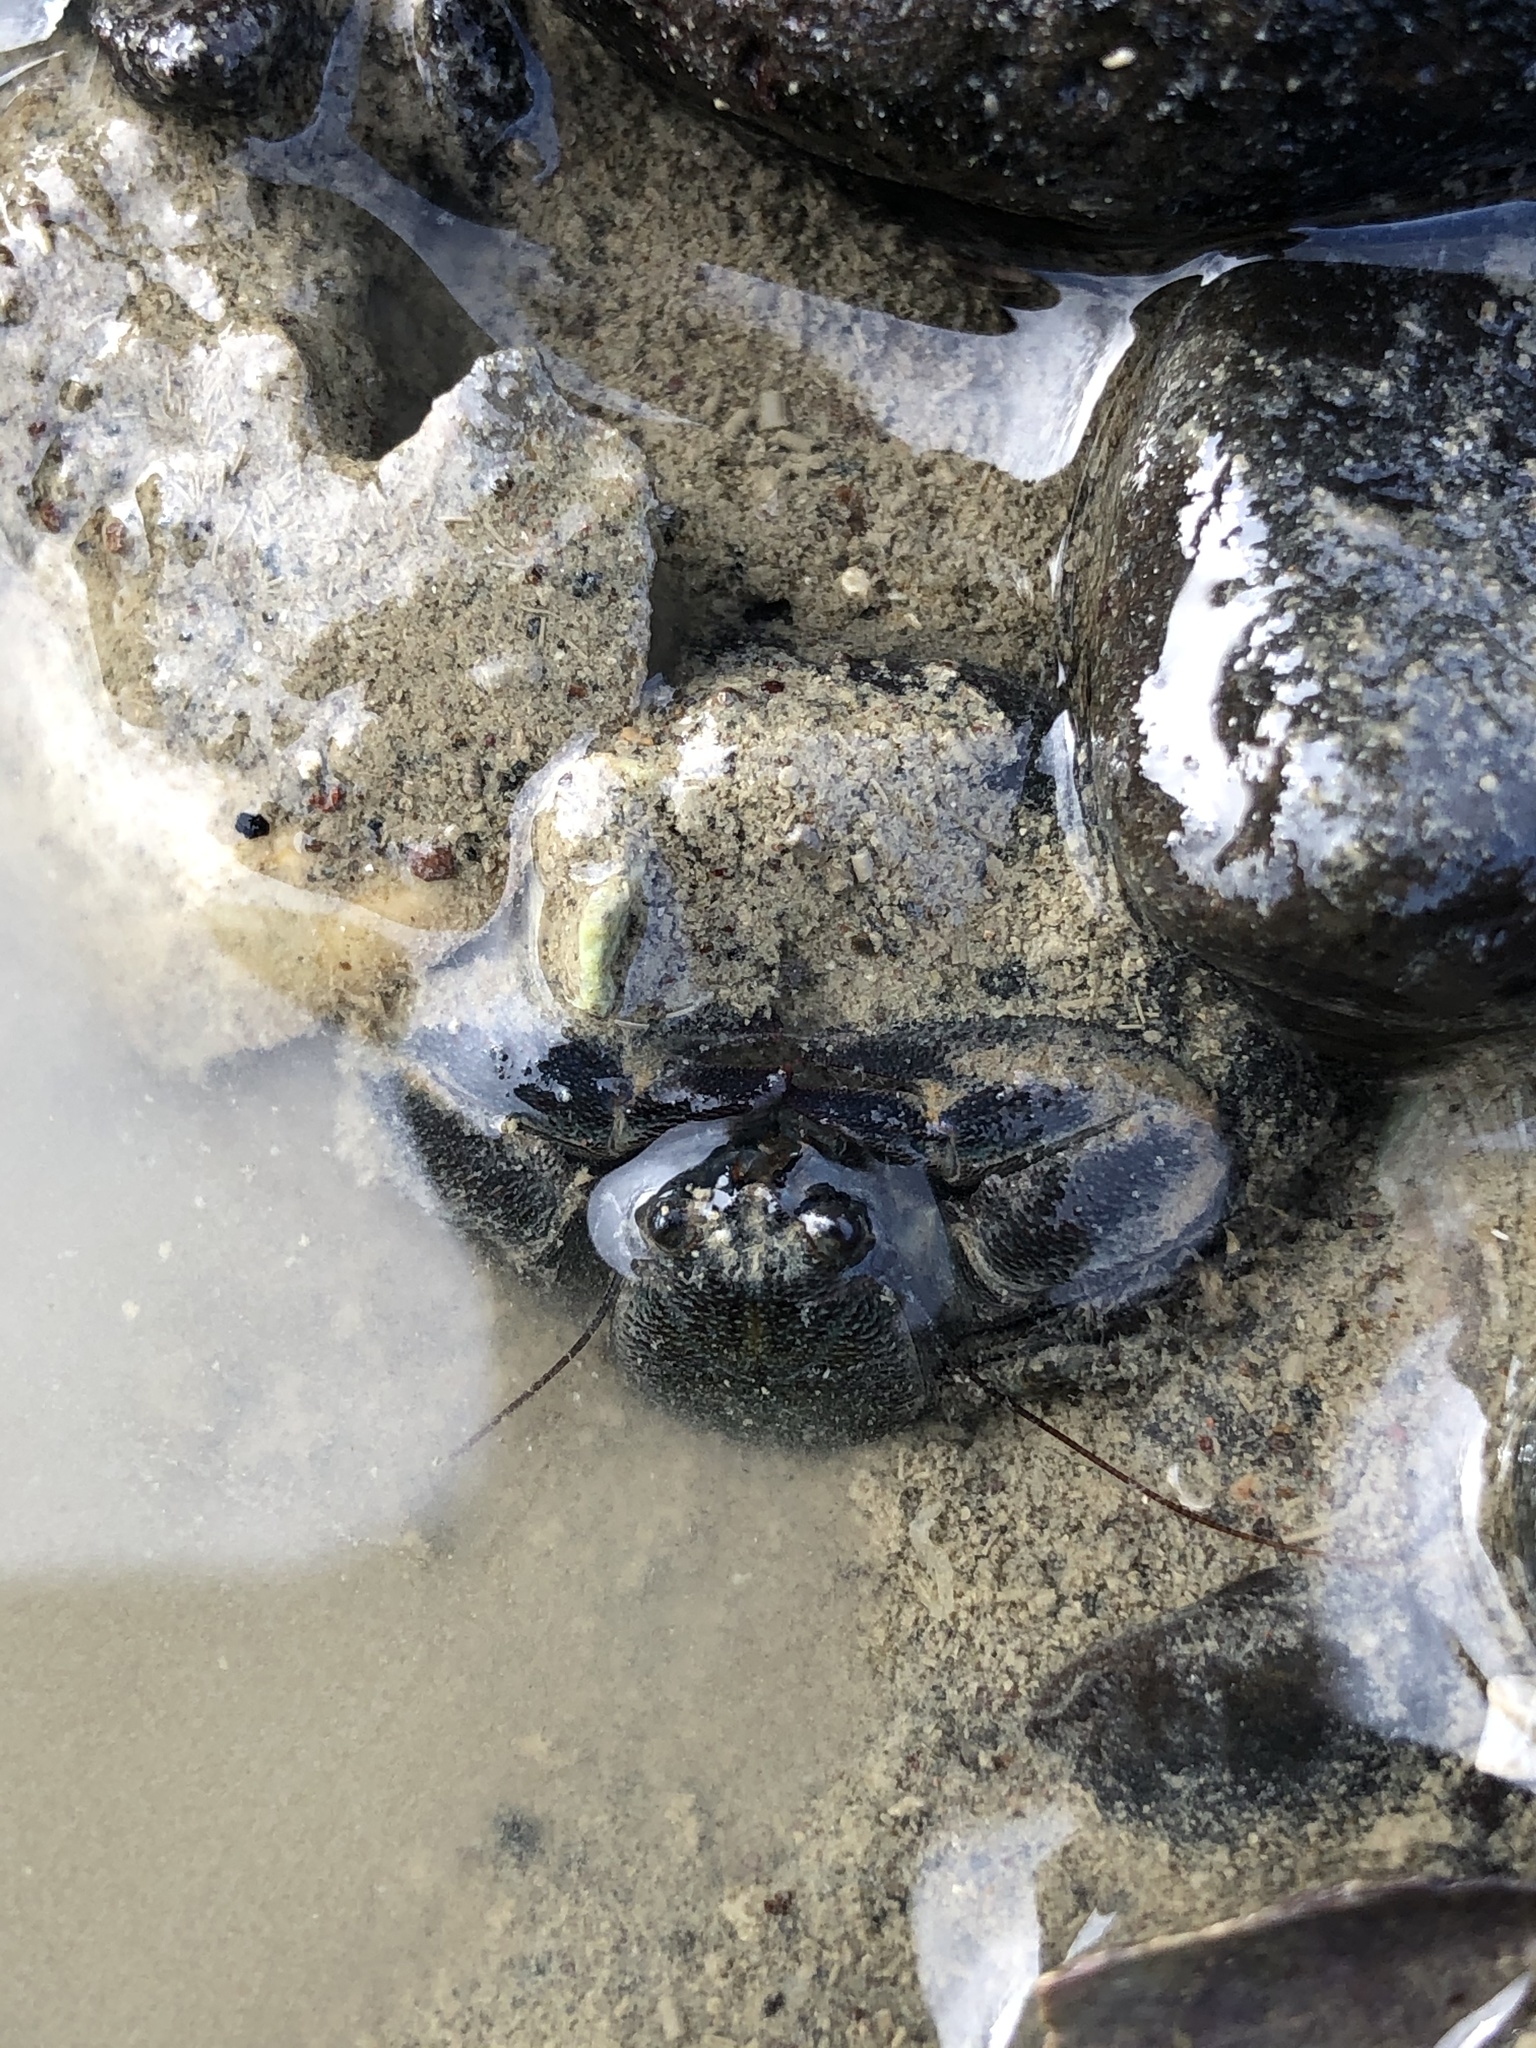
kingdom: Animalia
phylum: Arthropoda
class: Malacostraca
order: Decapoda
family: Porcellanidae
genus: Petrolisthes
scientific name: Petrolisthes elongatus
